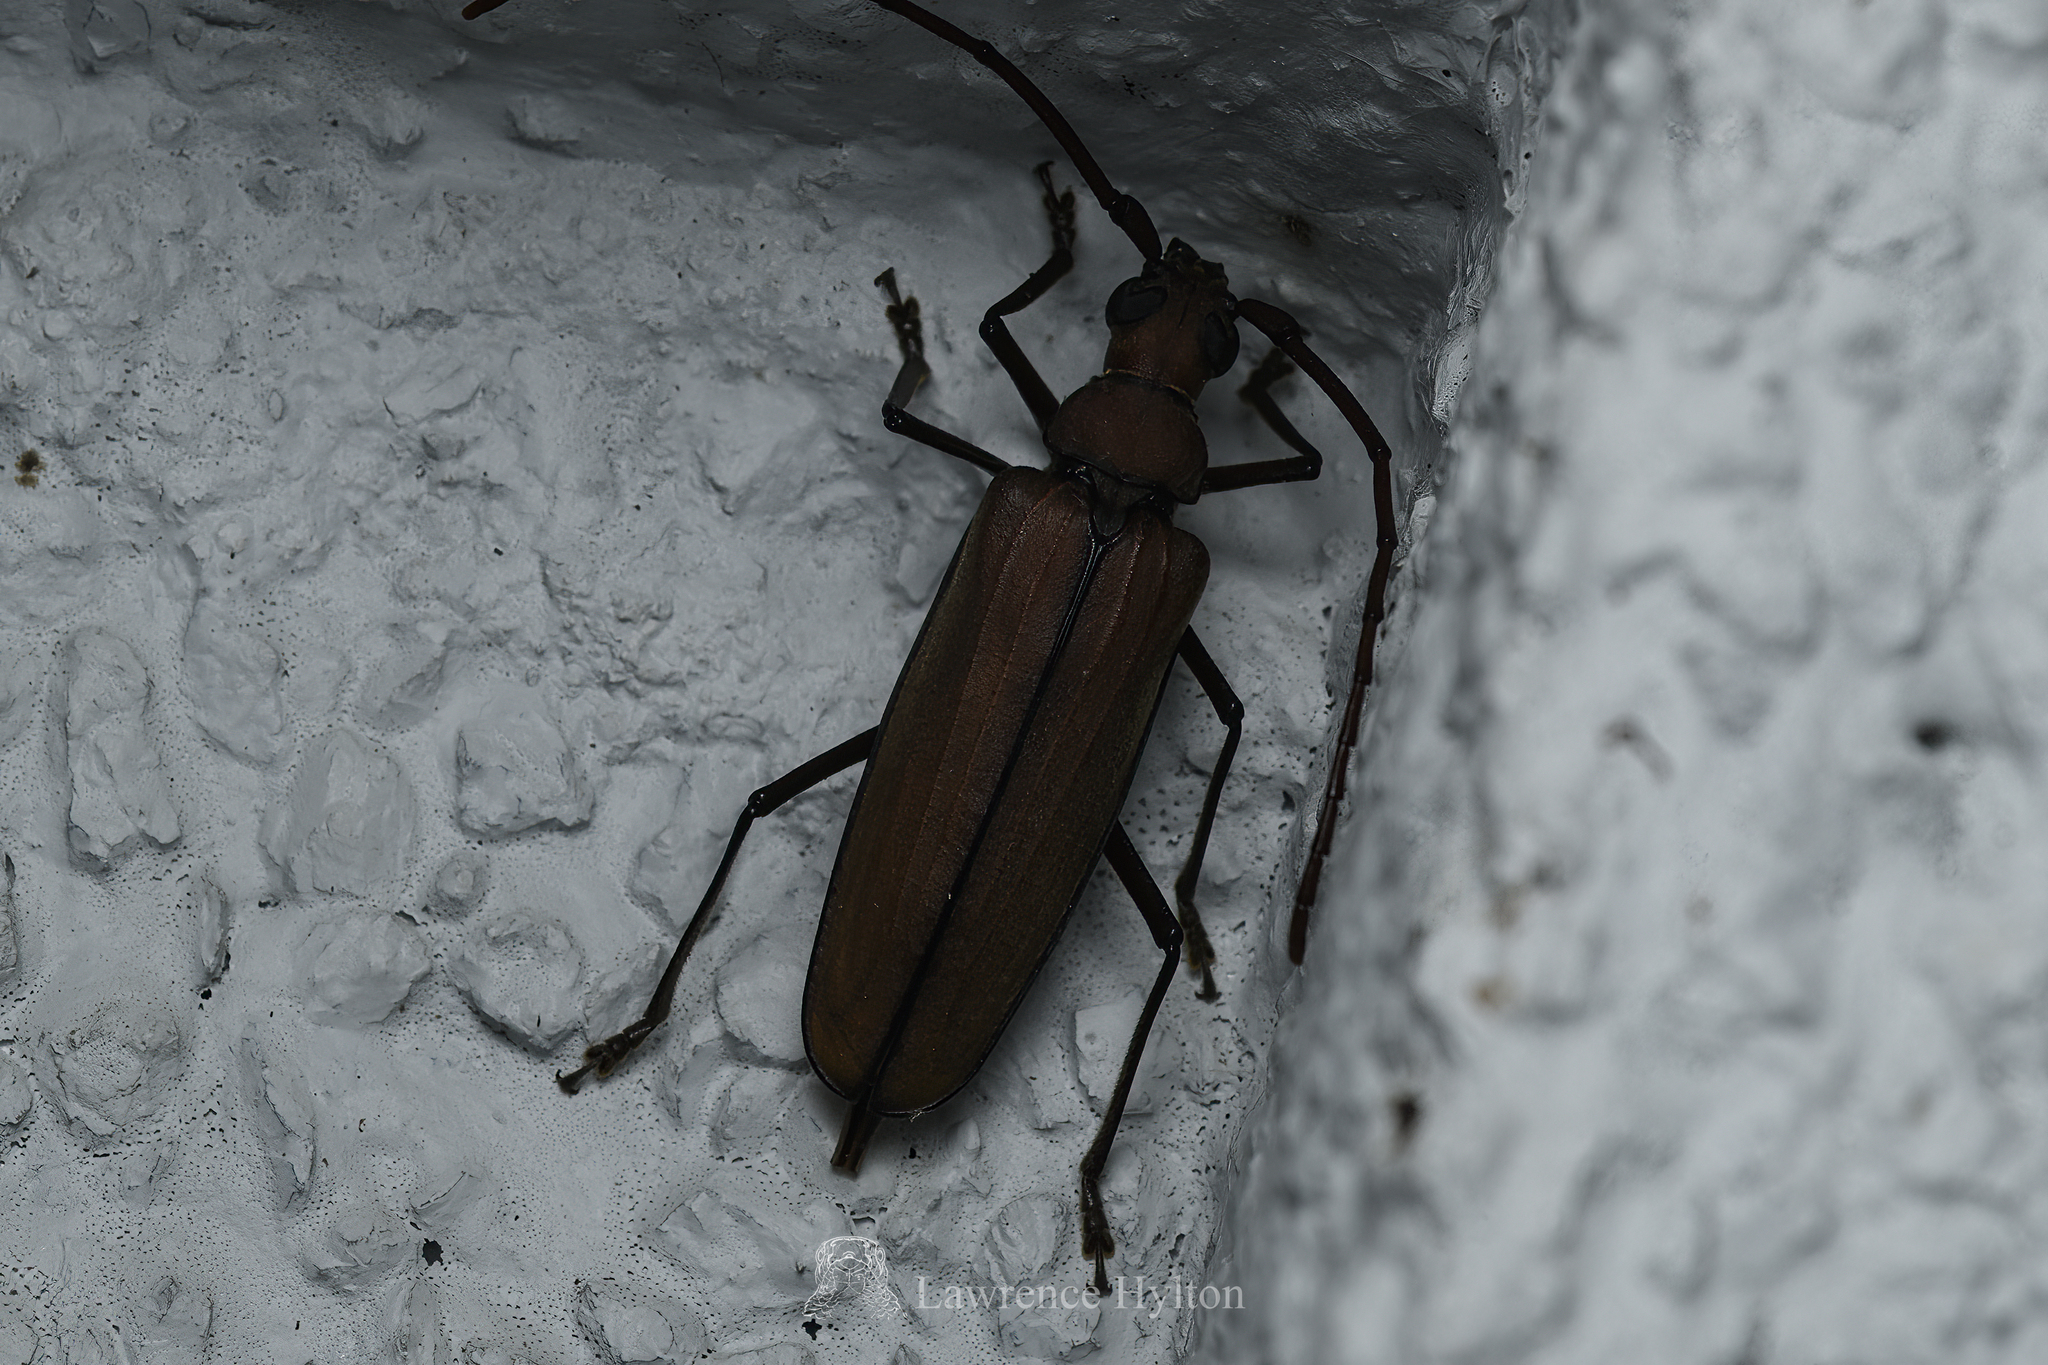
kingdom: Animalia
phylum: Arthropoda
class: Insecta
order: Coleoptera
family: Cerambycidae
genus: Aegolipton
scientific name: Aegolipton marginale
